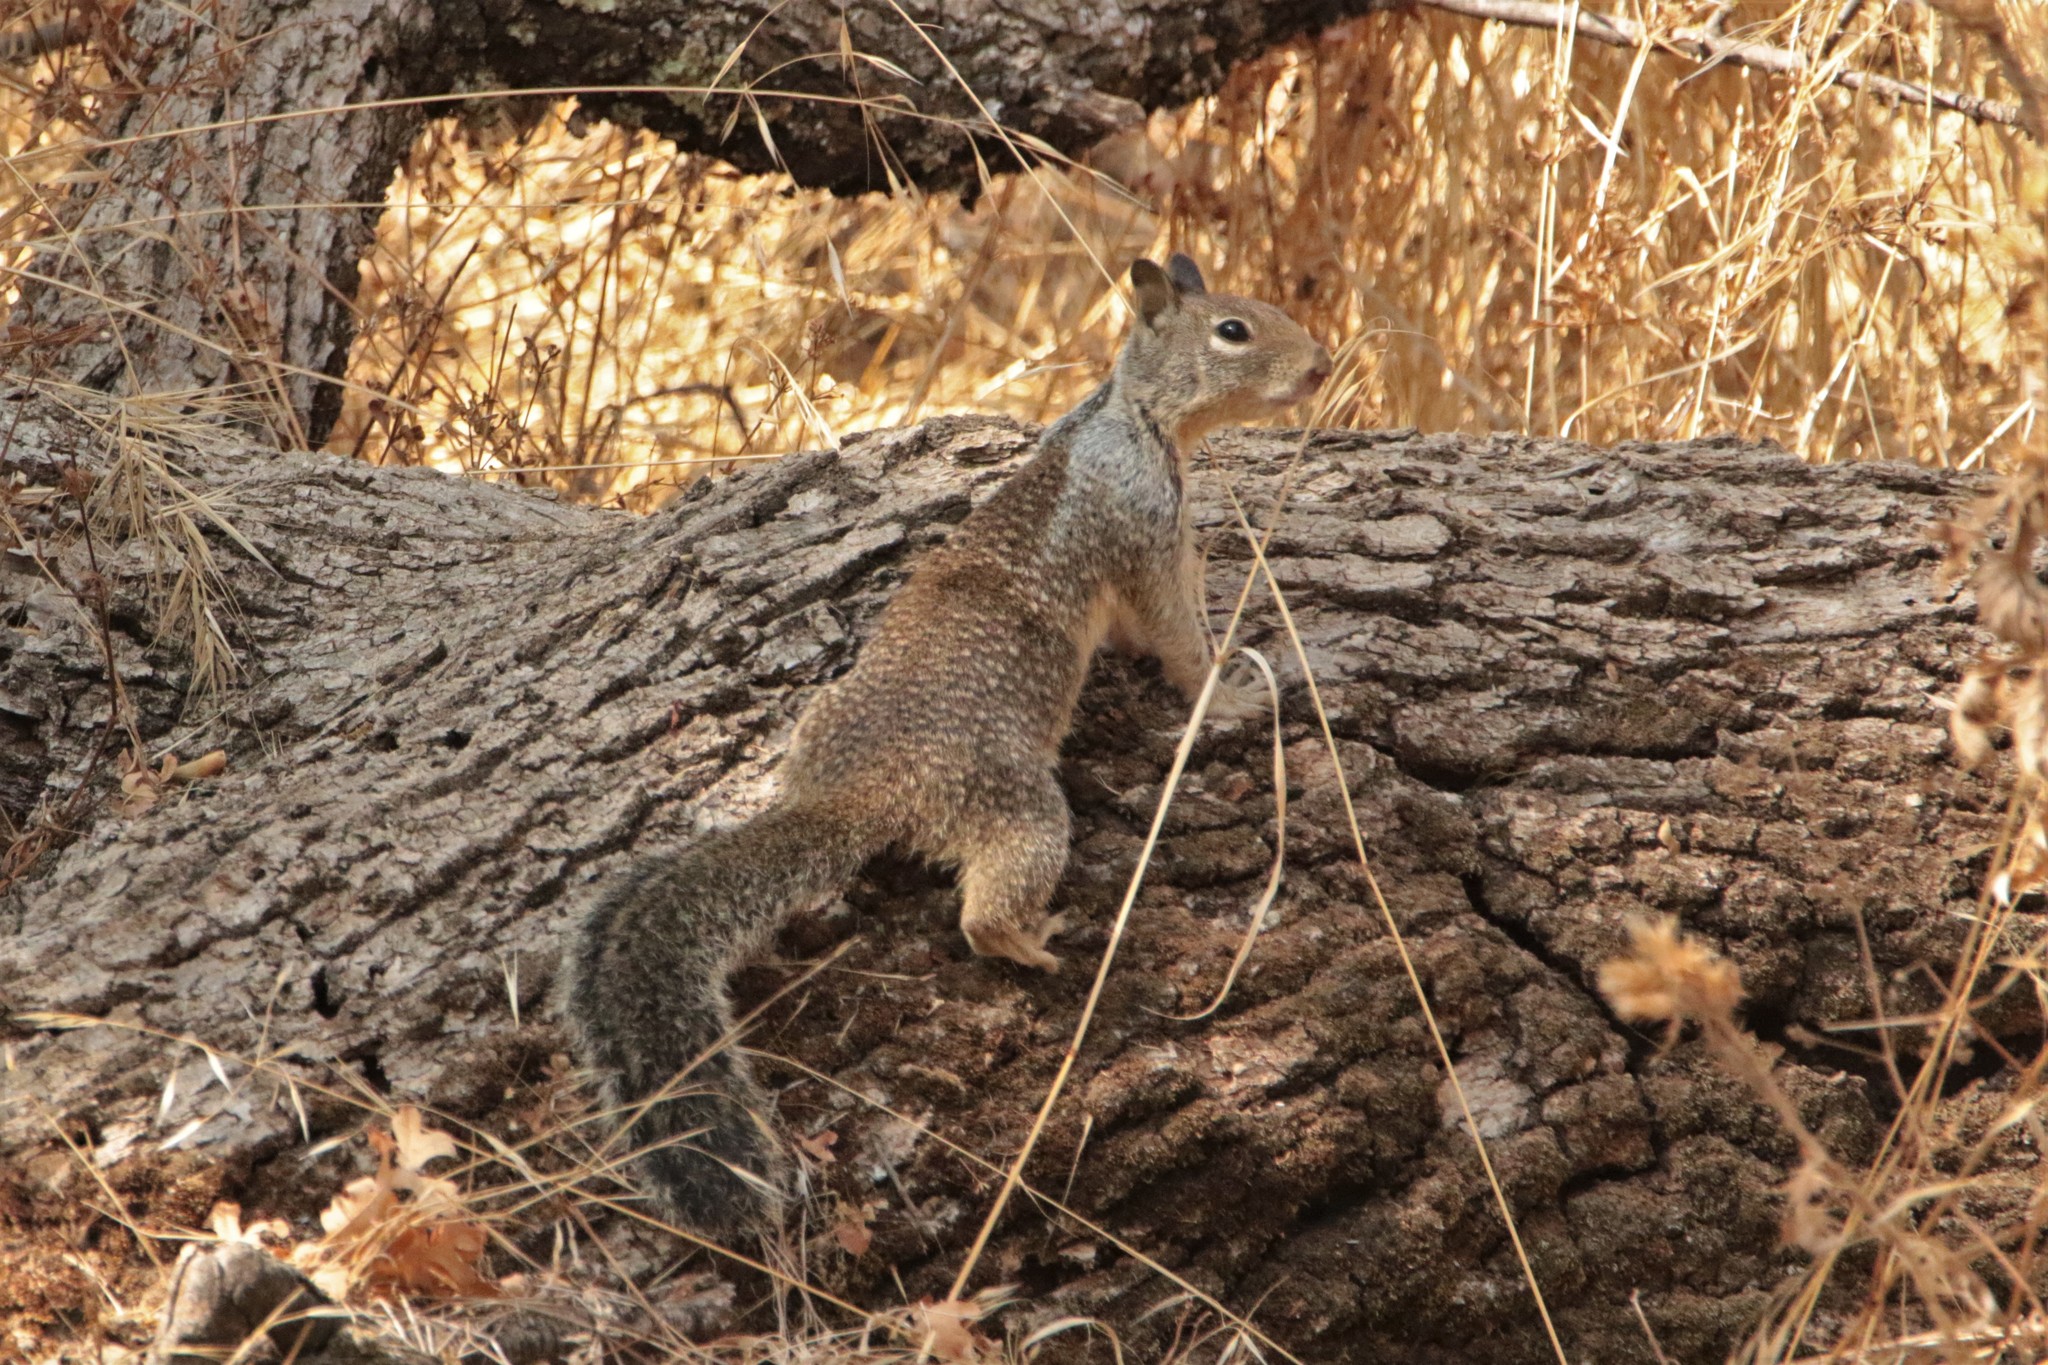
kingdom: Animalia
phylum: Chordata
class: Mammalia
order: Rodentia
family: Sciuridae
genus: Otospermophilus
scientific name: Otospermophilus beecheyi
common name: California ground squirrel
